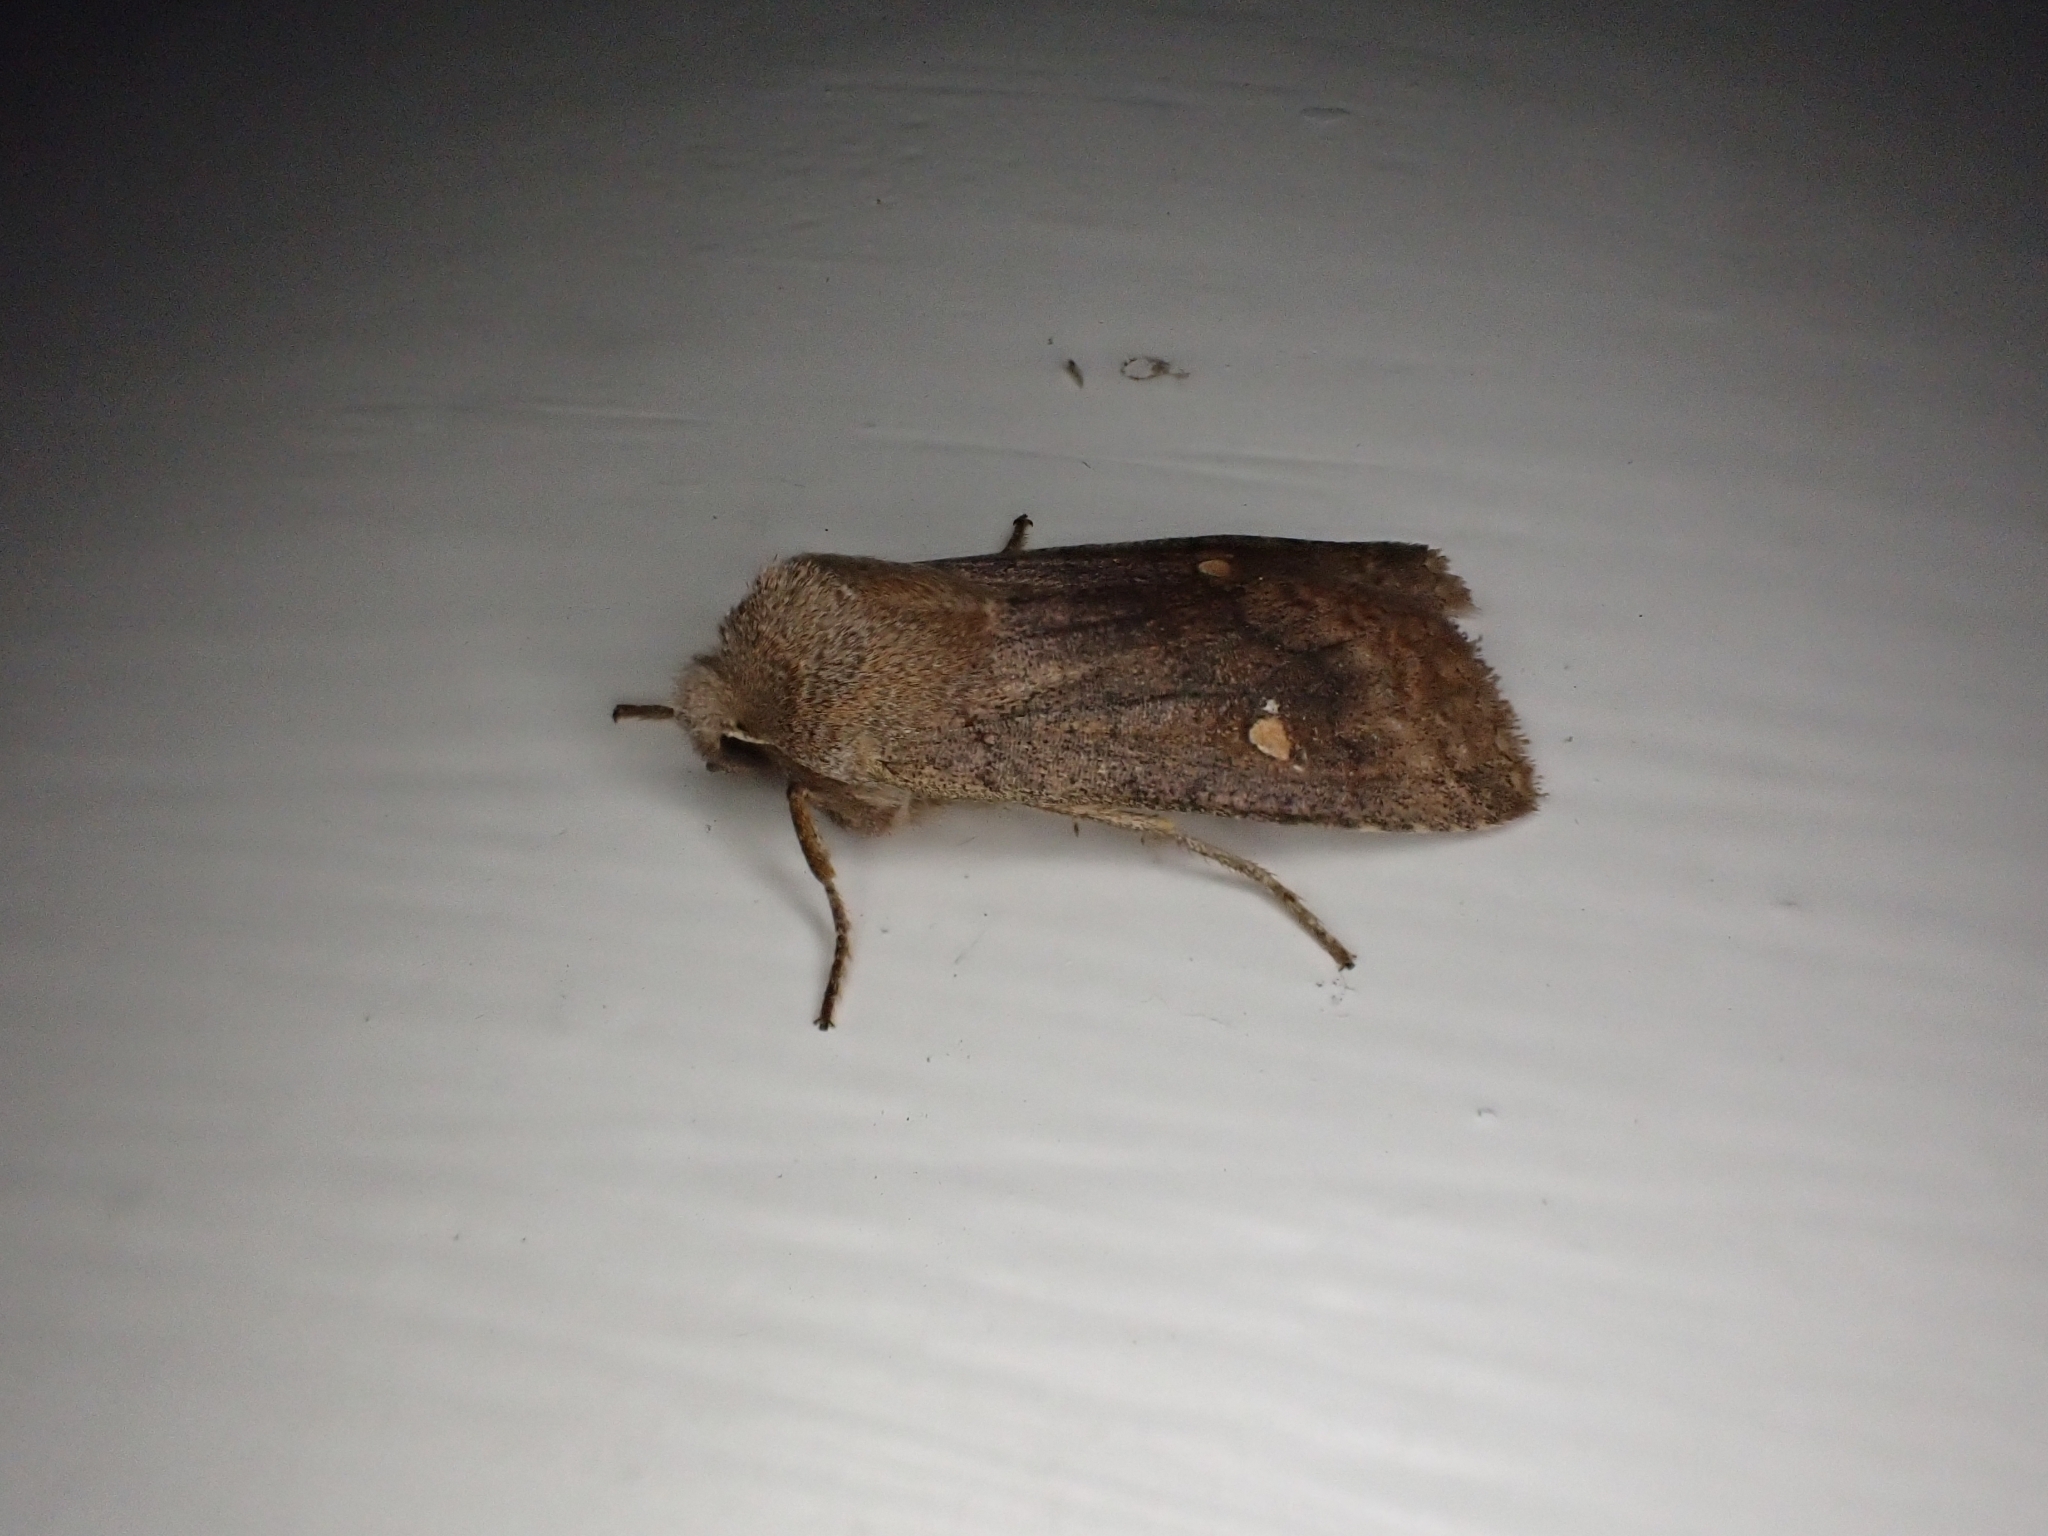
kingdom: Animalia
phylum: Arthropoda
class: Insecta
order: Lepidoptera
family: Noctuidae
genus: Eupsilia
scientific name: Eupsilia transversa
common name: Satellite
